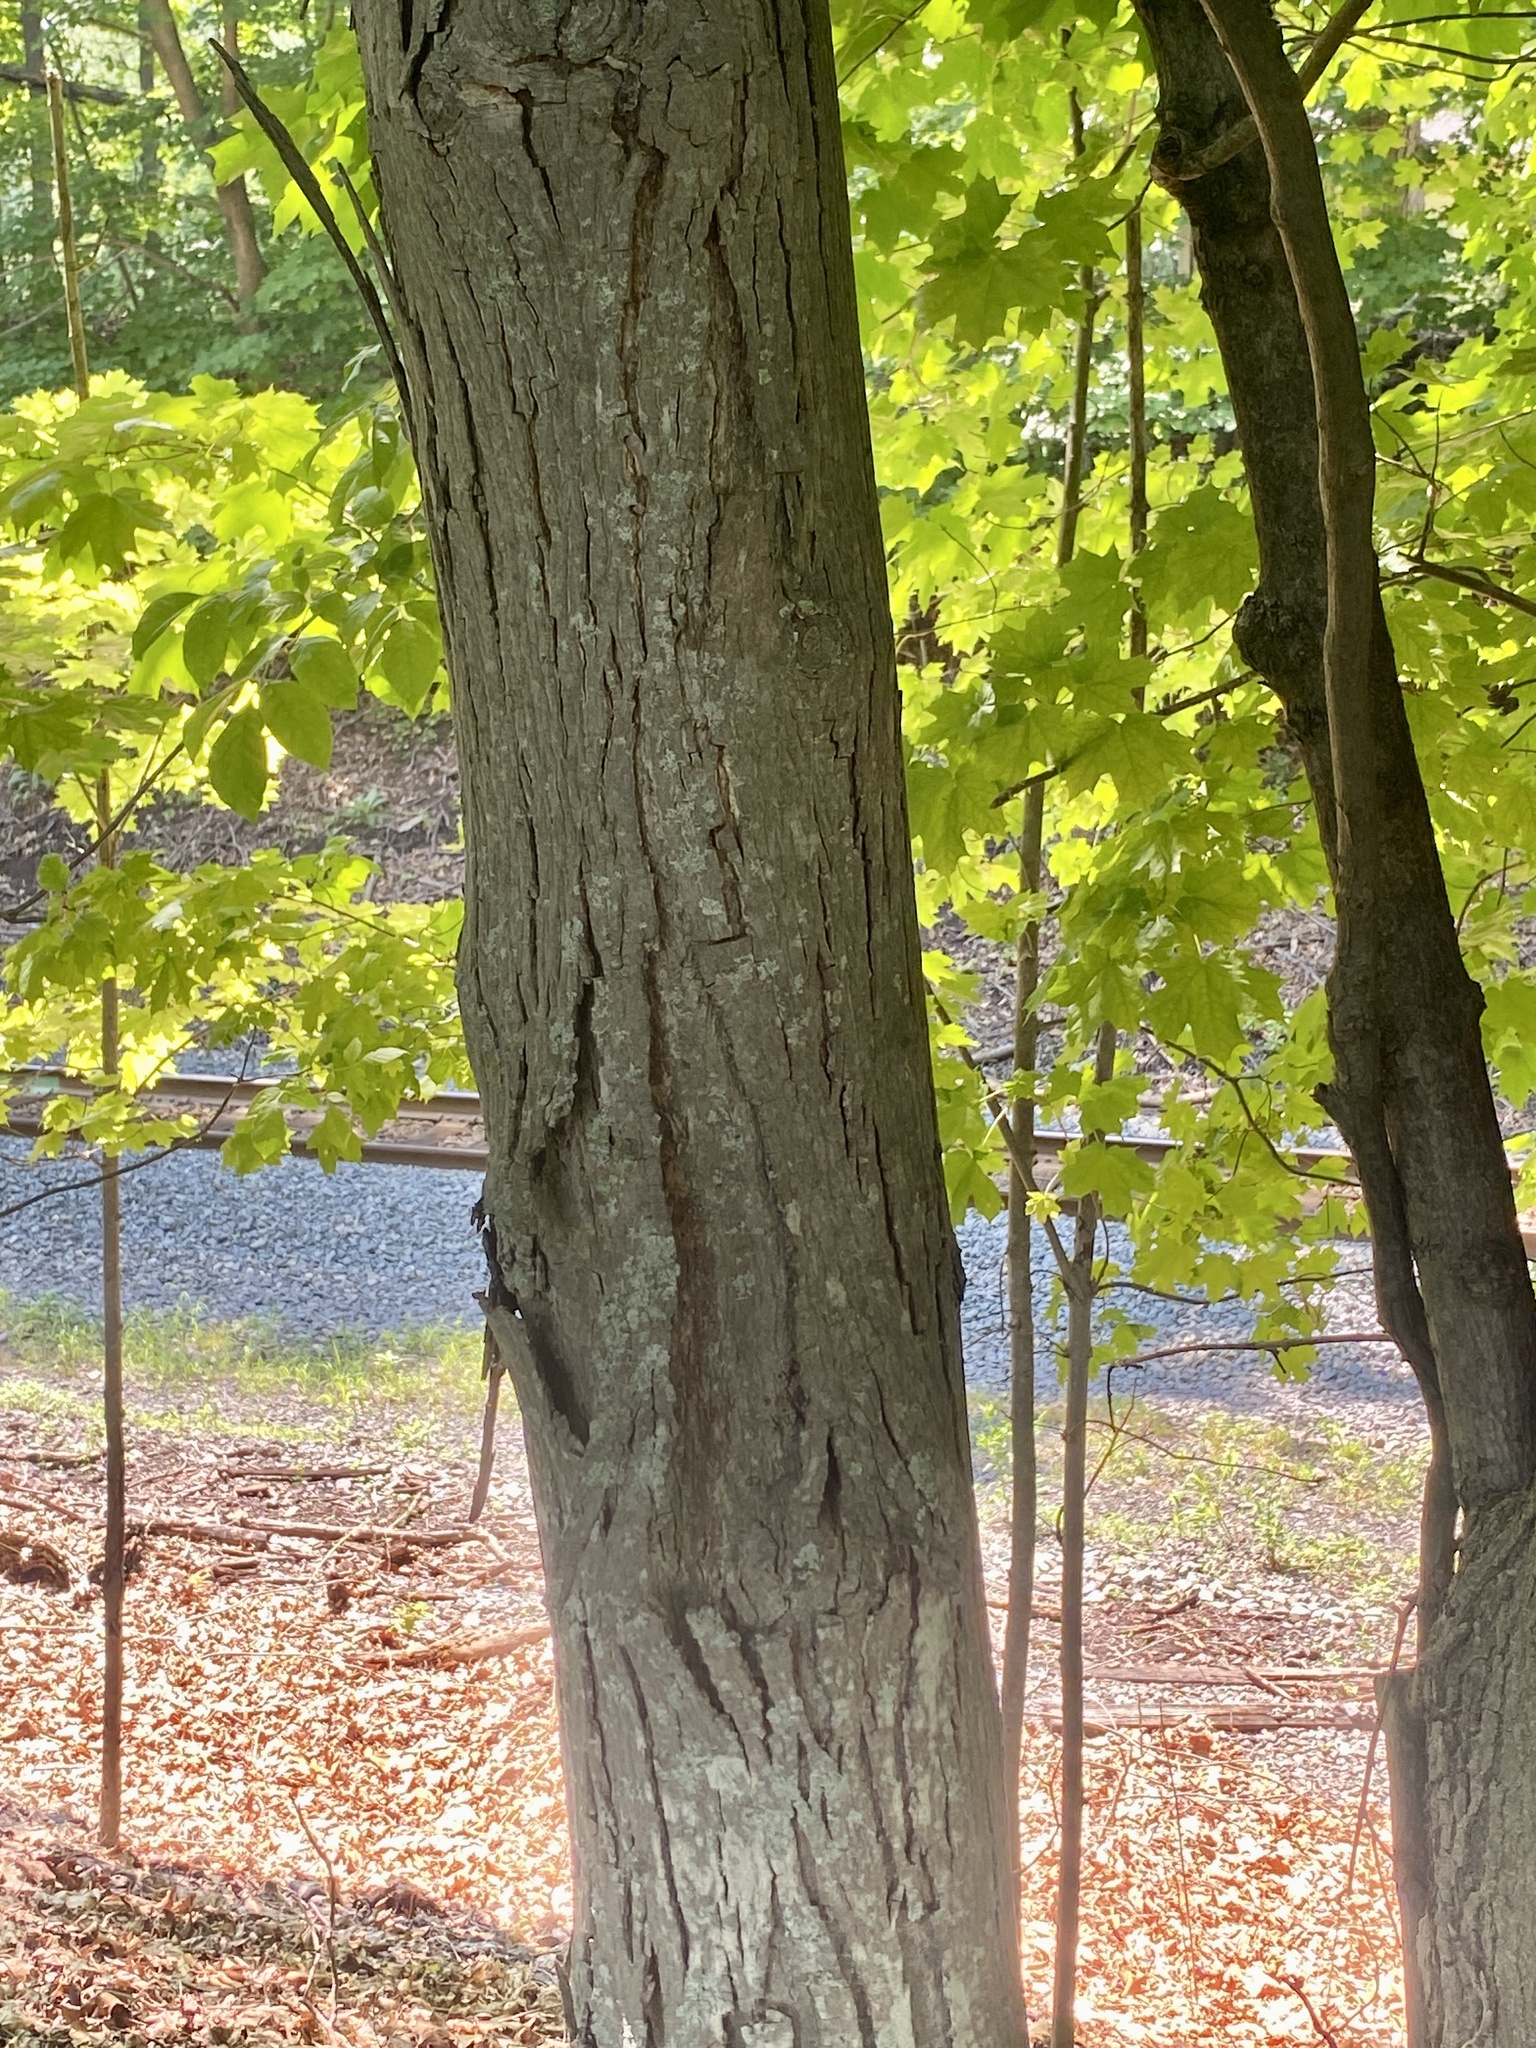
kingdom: Plantae
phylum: Tracheophyta
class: Magnoliopsida
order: Fagales
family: Juglandaceae
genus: Carya
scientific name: Carya ovata
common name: Shagbark hickory
